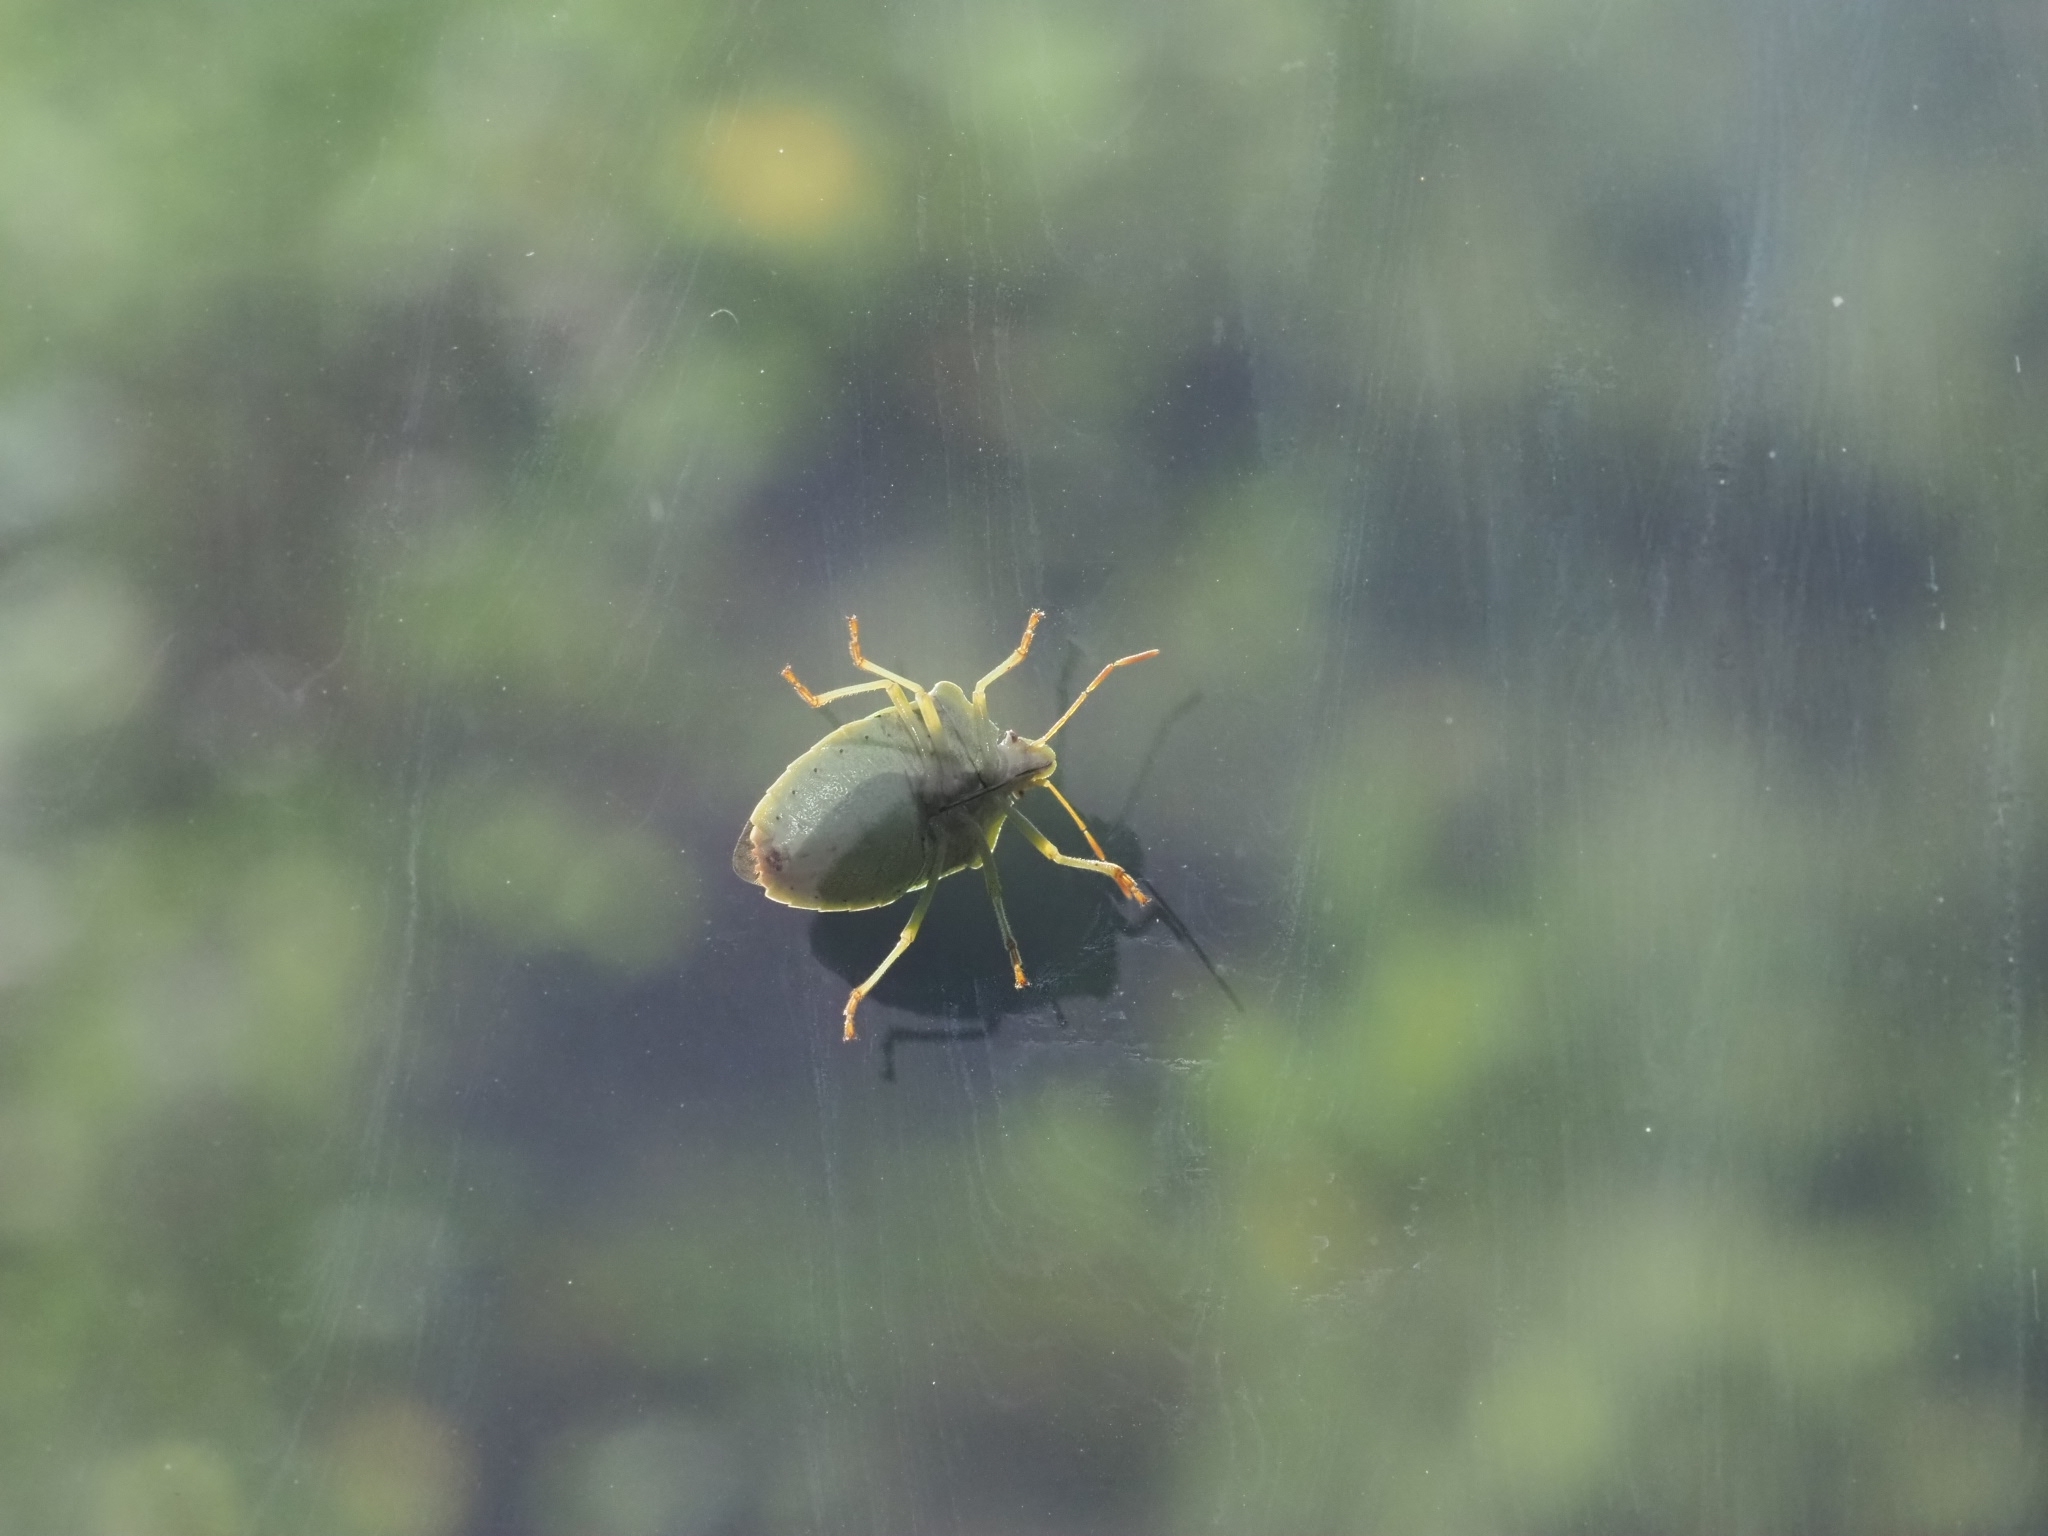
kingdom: Animalia
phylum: Arthropoda
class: Insecta
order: Hemiptera
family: Pentatomidae
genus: Palomena
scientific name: Palomena prasina
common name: Green shieldbug
